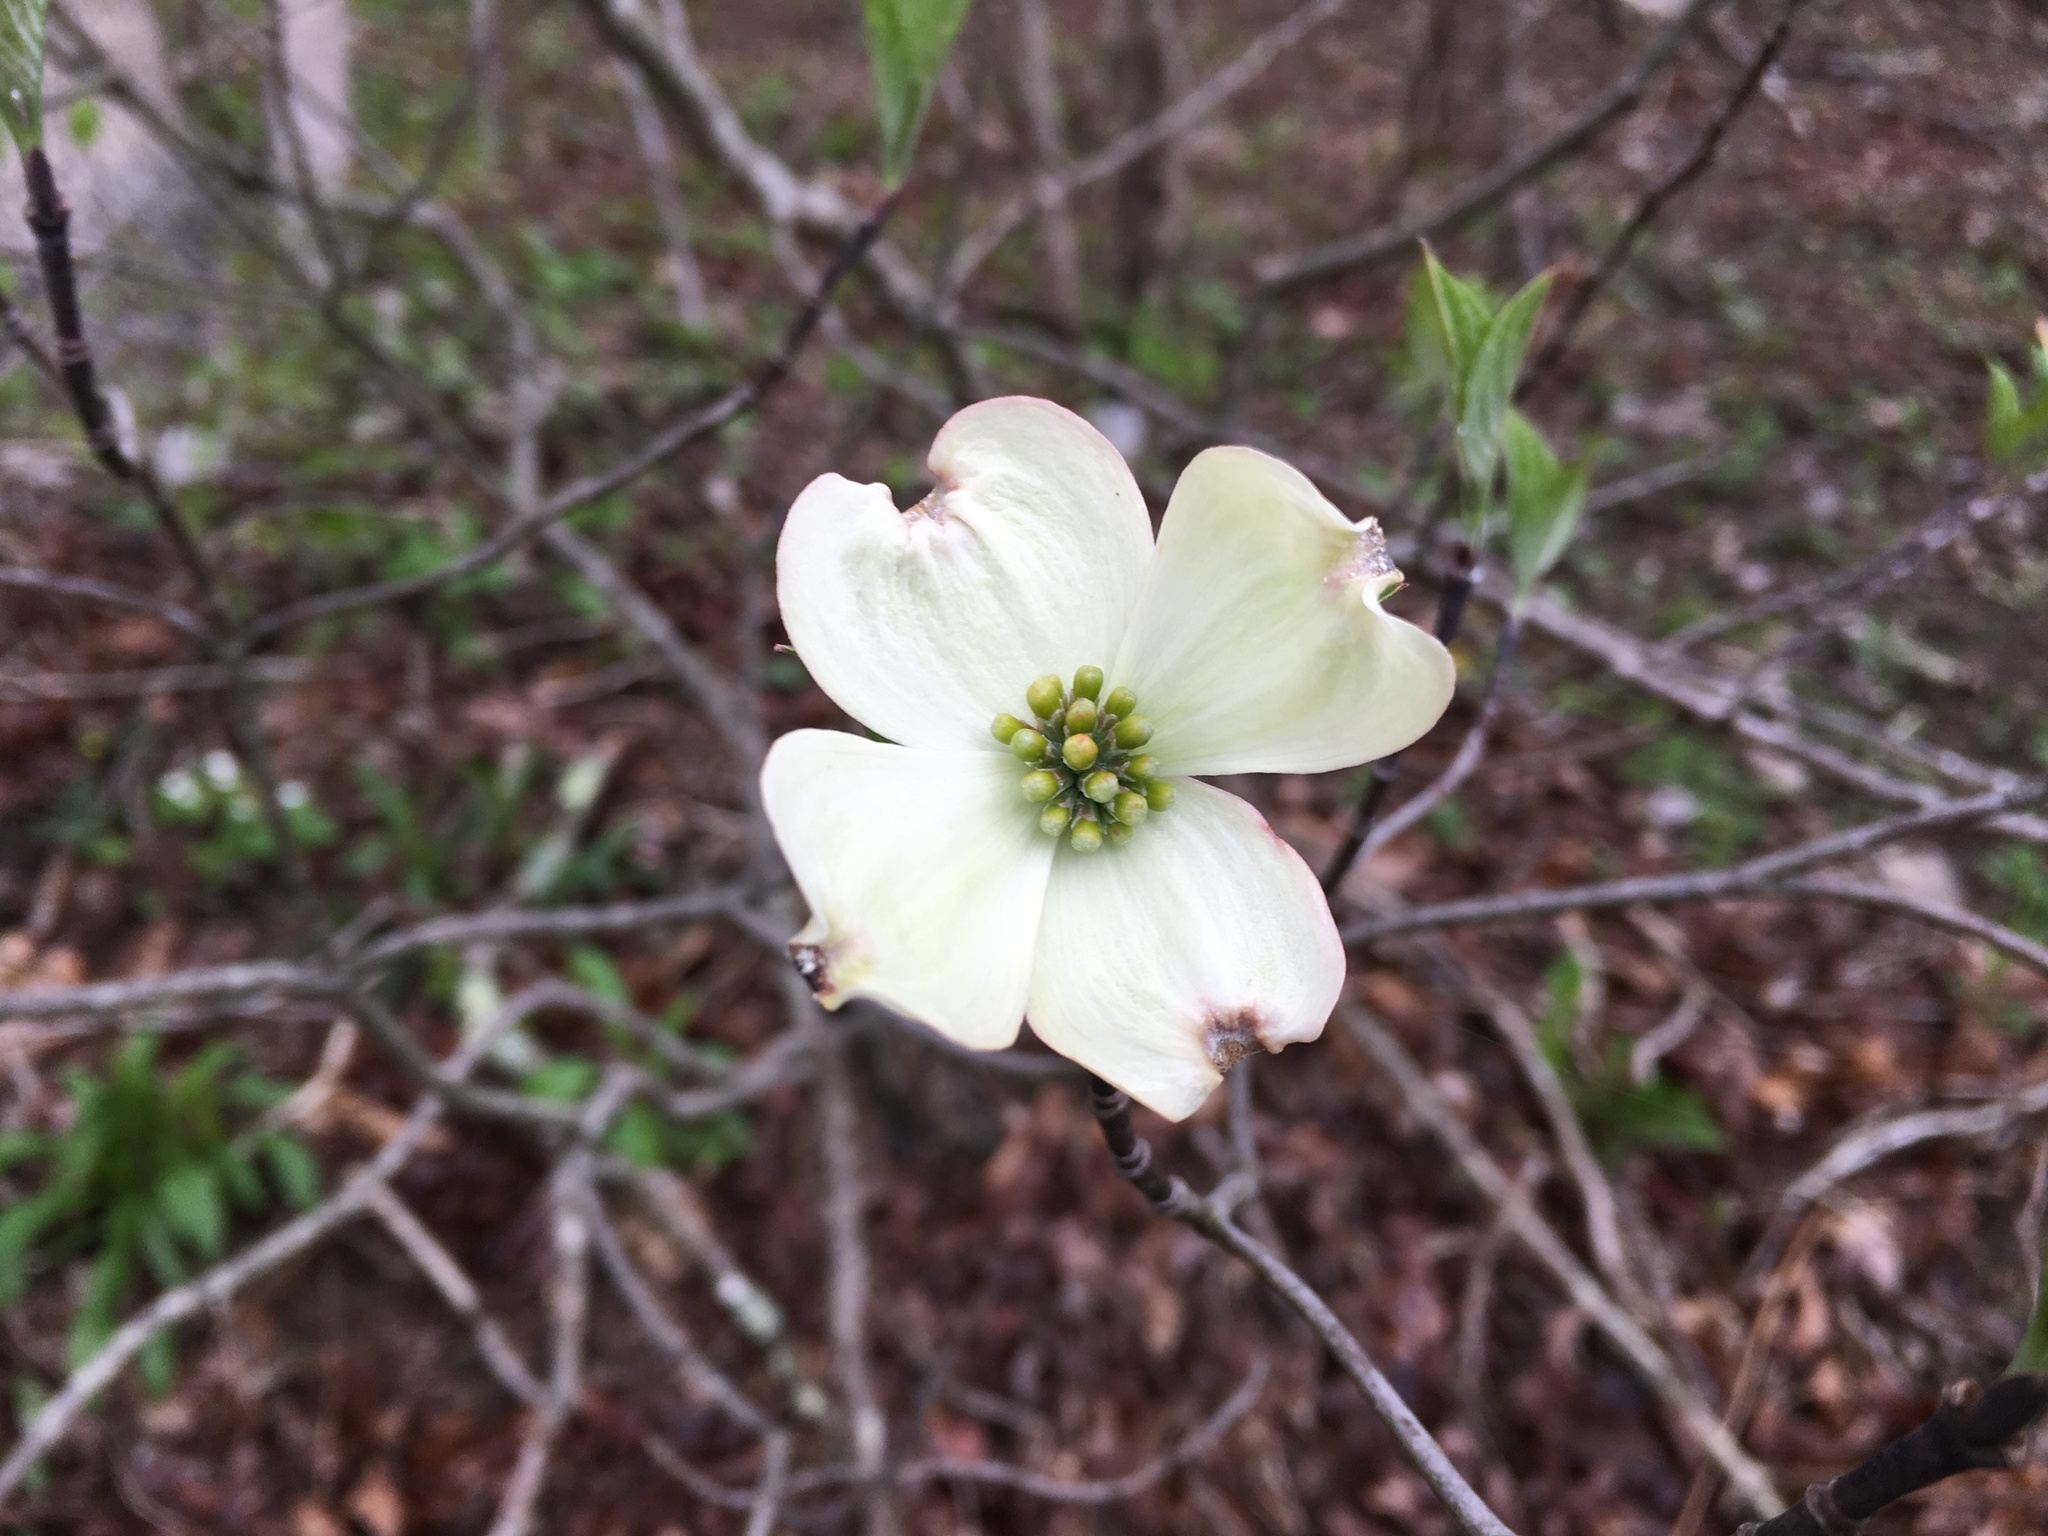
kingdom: Plantae
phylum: Tracheophyta
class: Magnoliopsida
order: Cornales
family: Cornaceae
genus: Cornus
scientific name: Cornus florida
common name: Flowering dogwood
